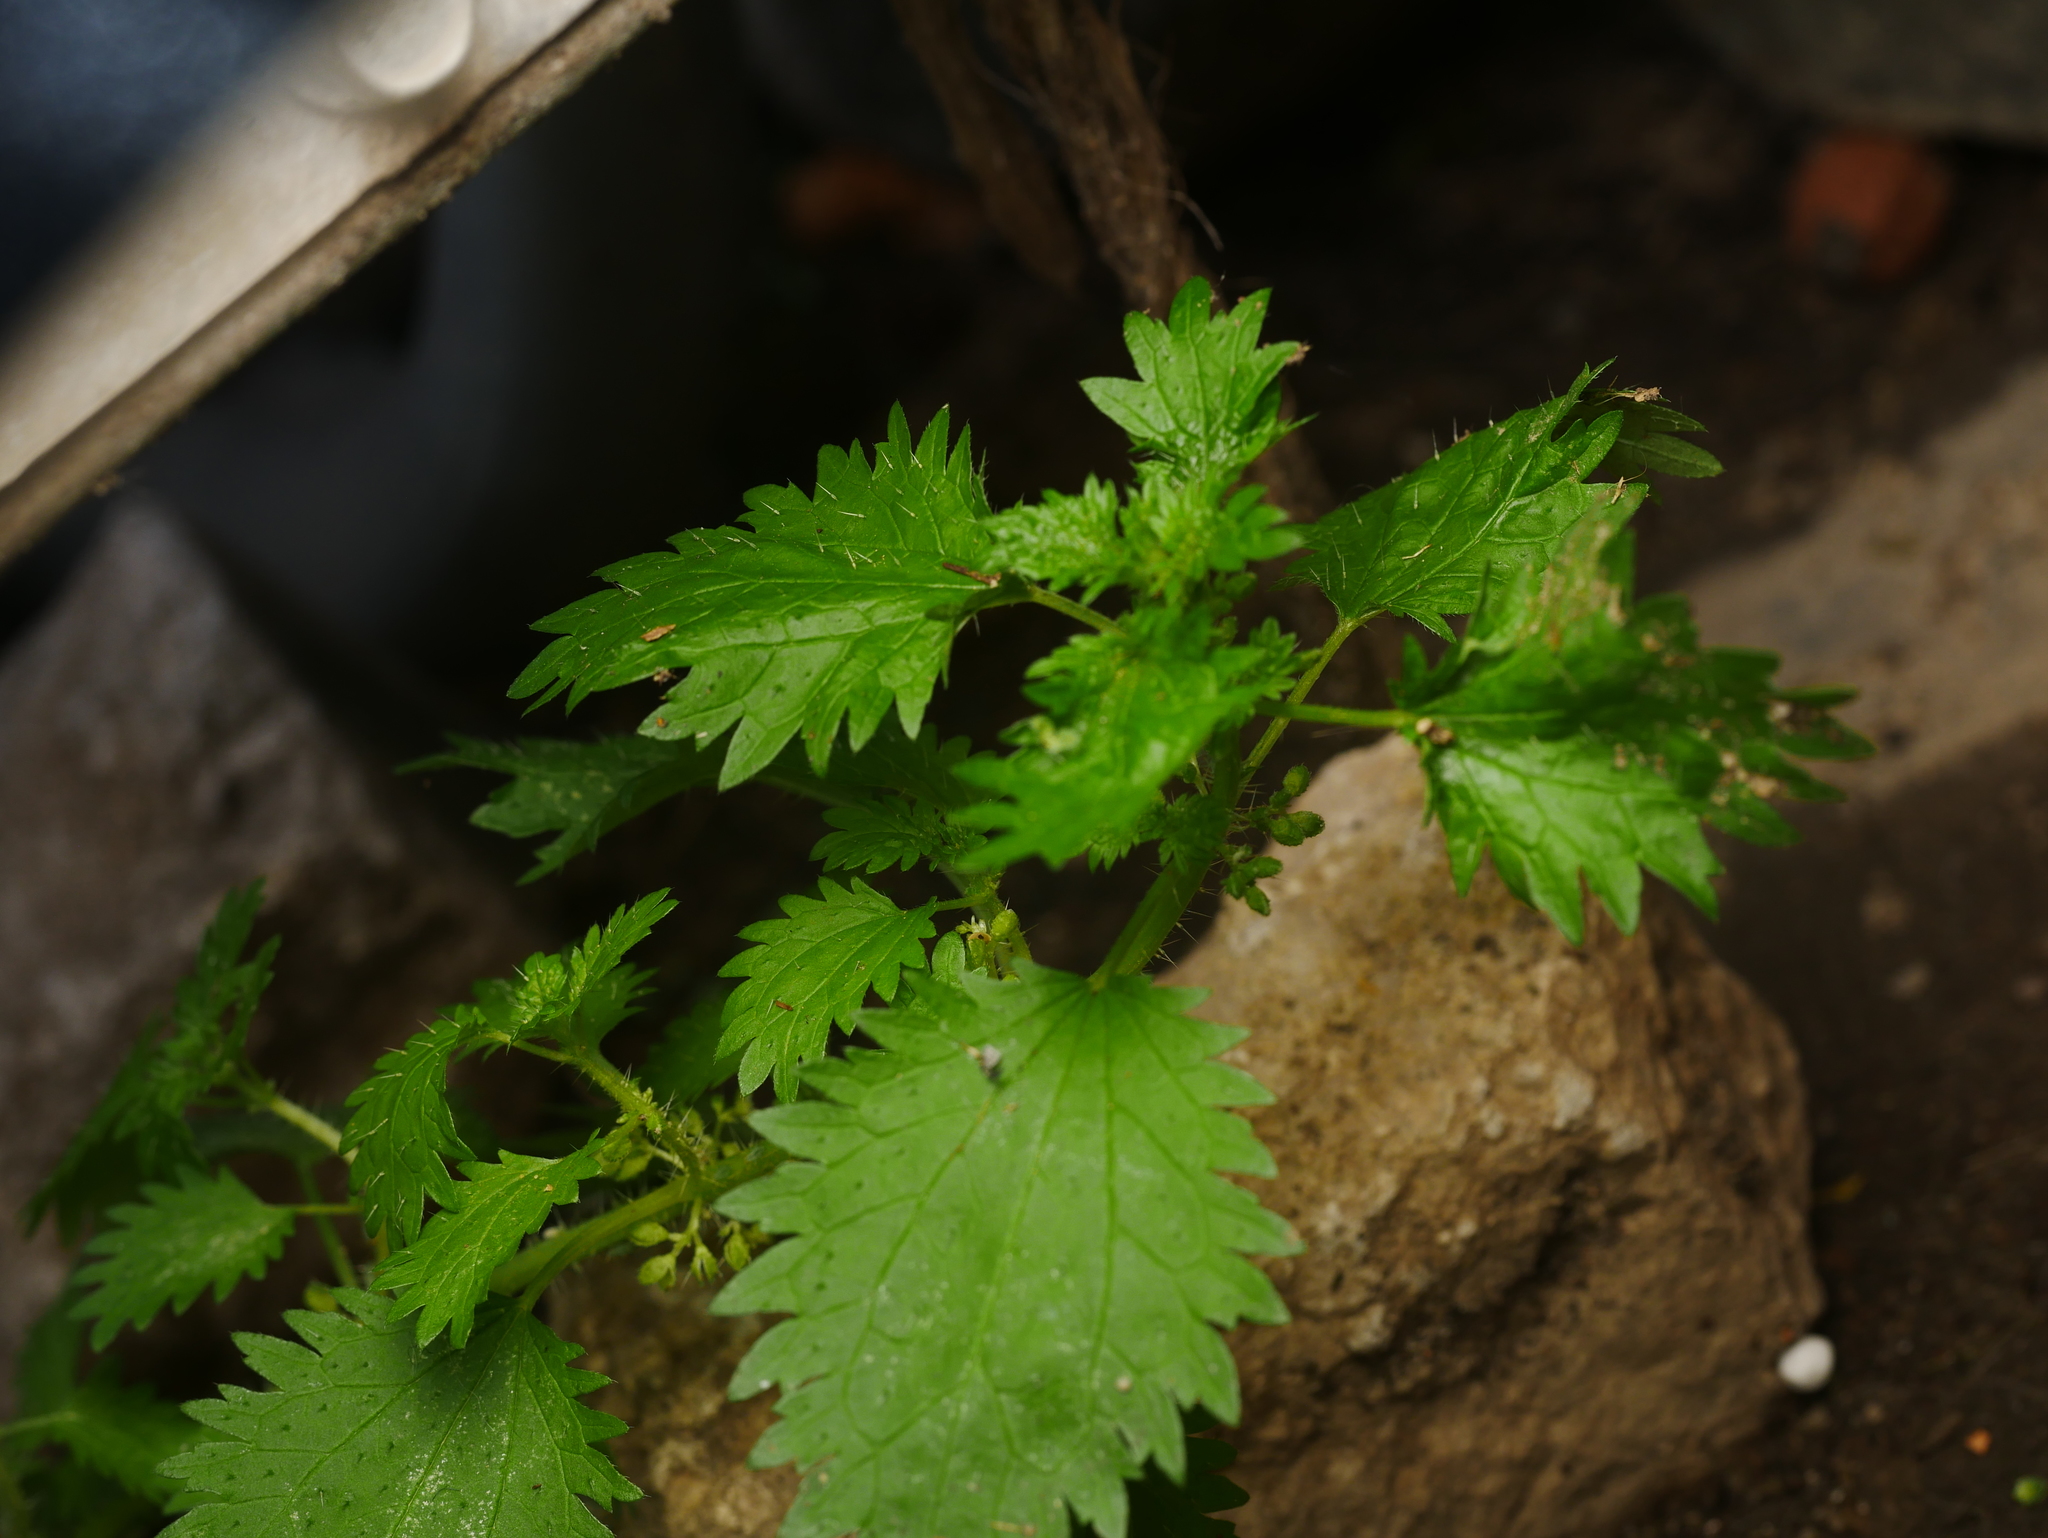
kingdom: Plantae
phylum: Tracheophyta
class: Magnoliopsida
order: Rosales
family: Urticaceae
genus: Urtica
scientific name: Urtica urens
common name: Dwarf nettle
